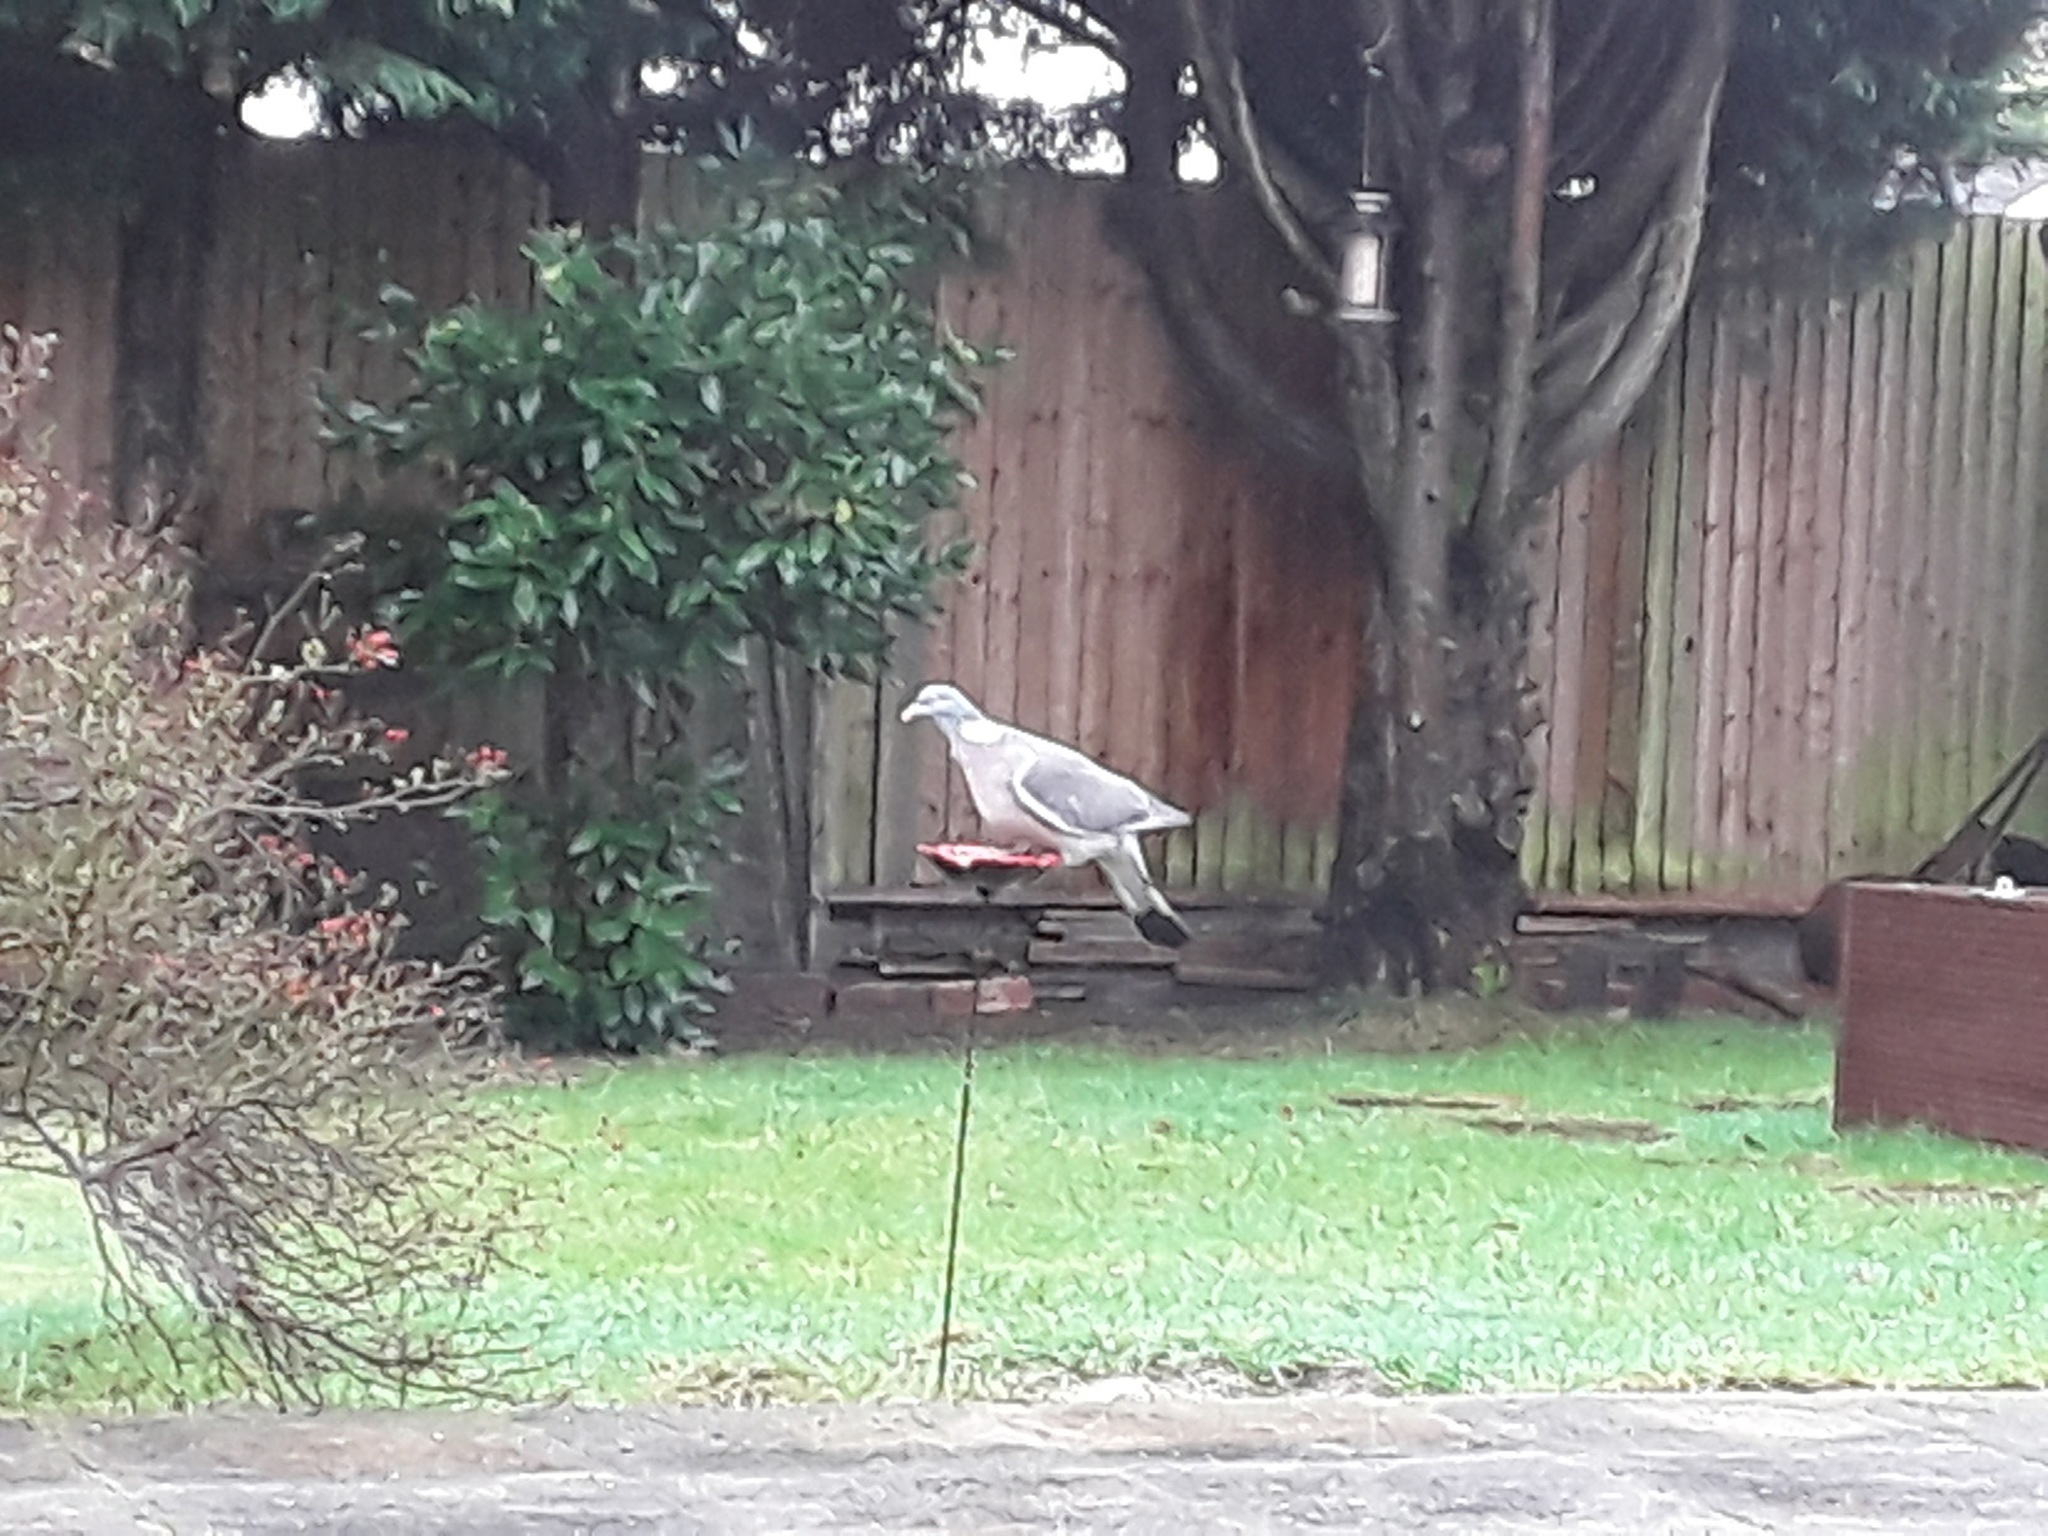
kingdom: Animalia
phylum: Chordata
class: Aves
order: Columbiformes
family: Columbidae
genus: Columba
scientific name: Columba palumbus
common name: Common wood pigeon
